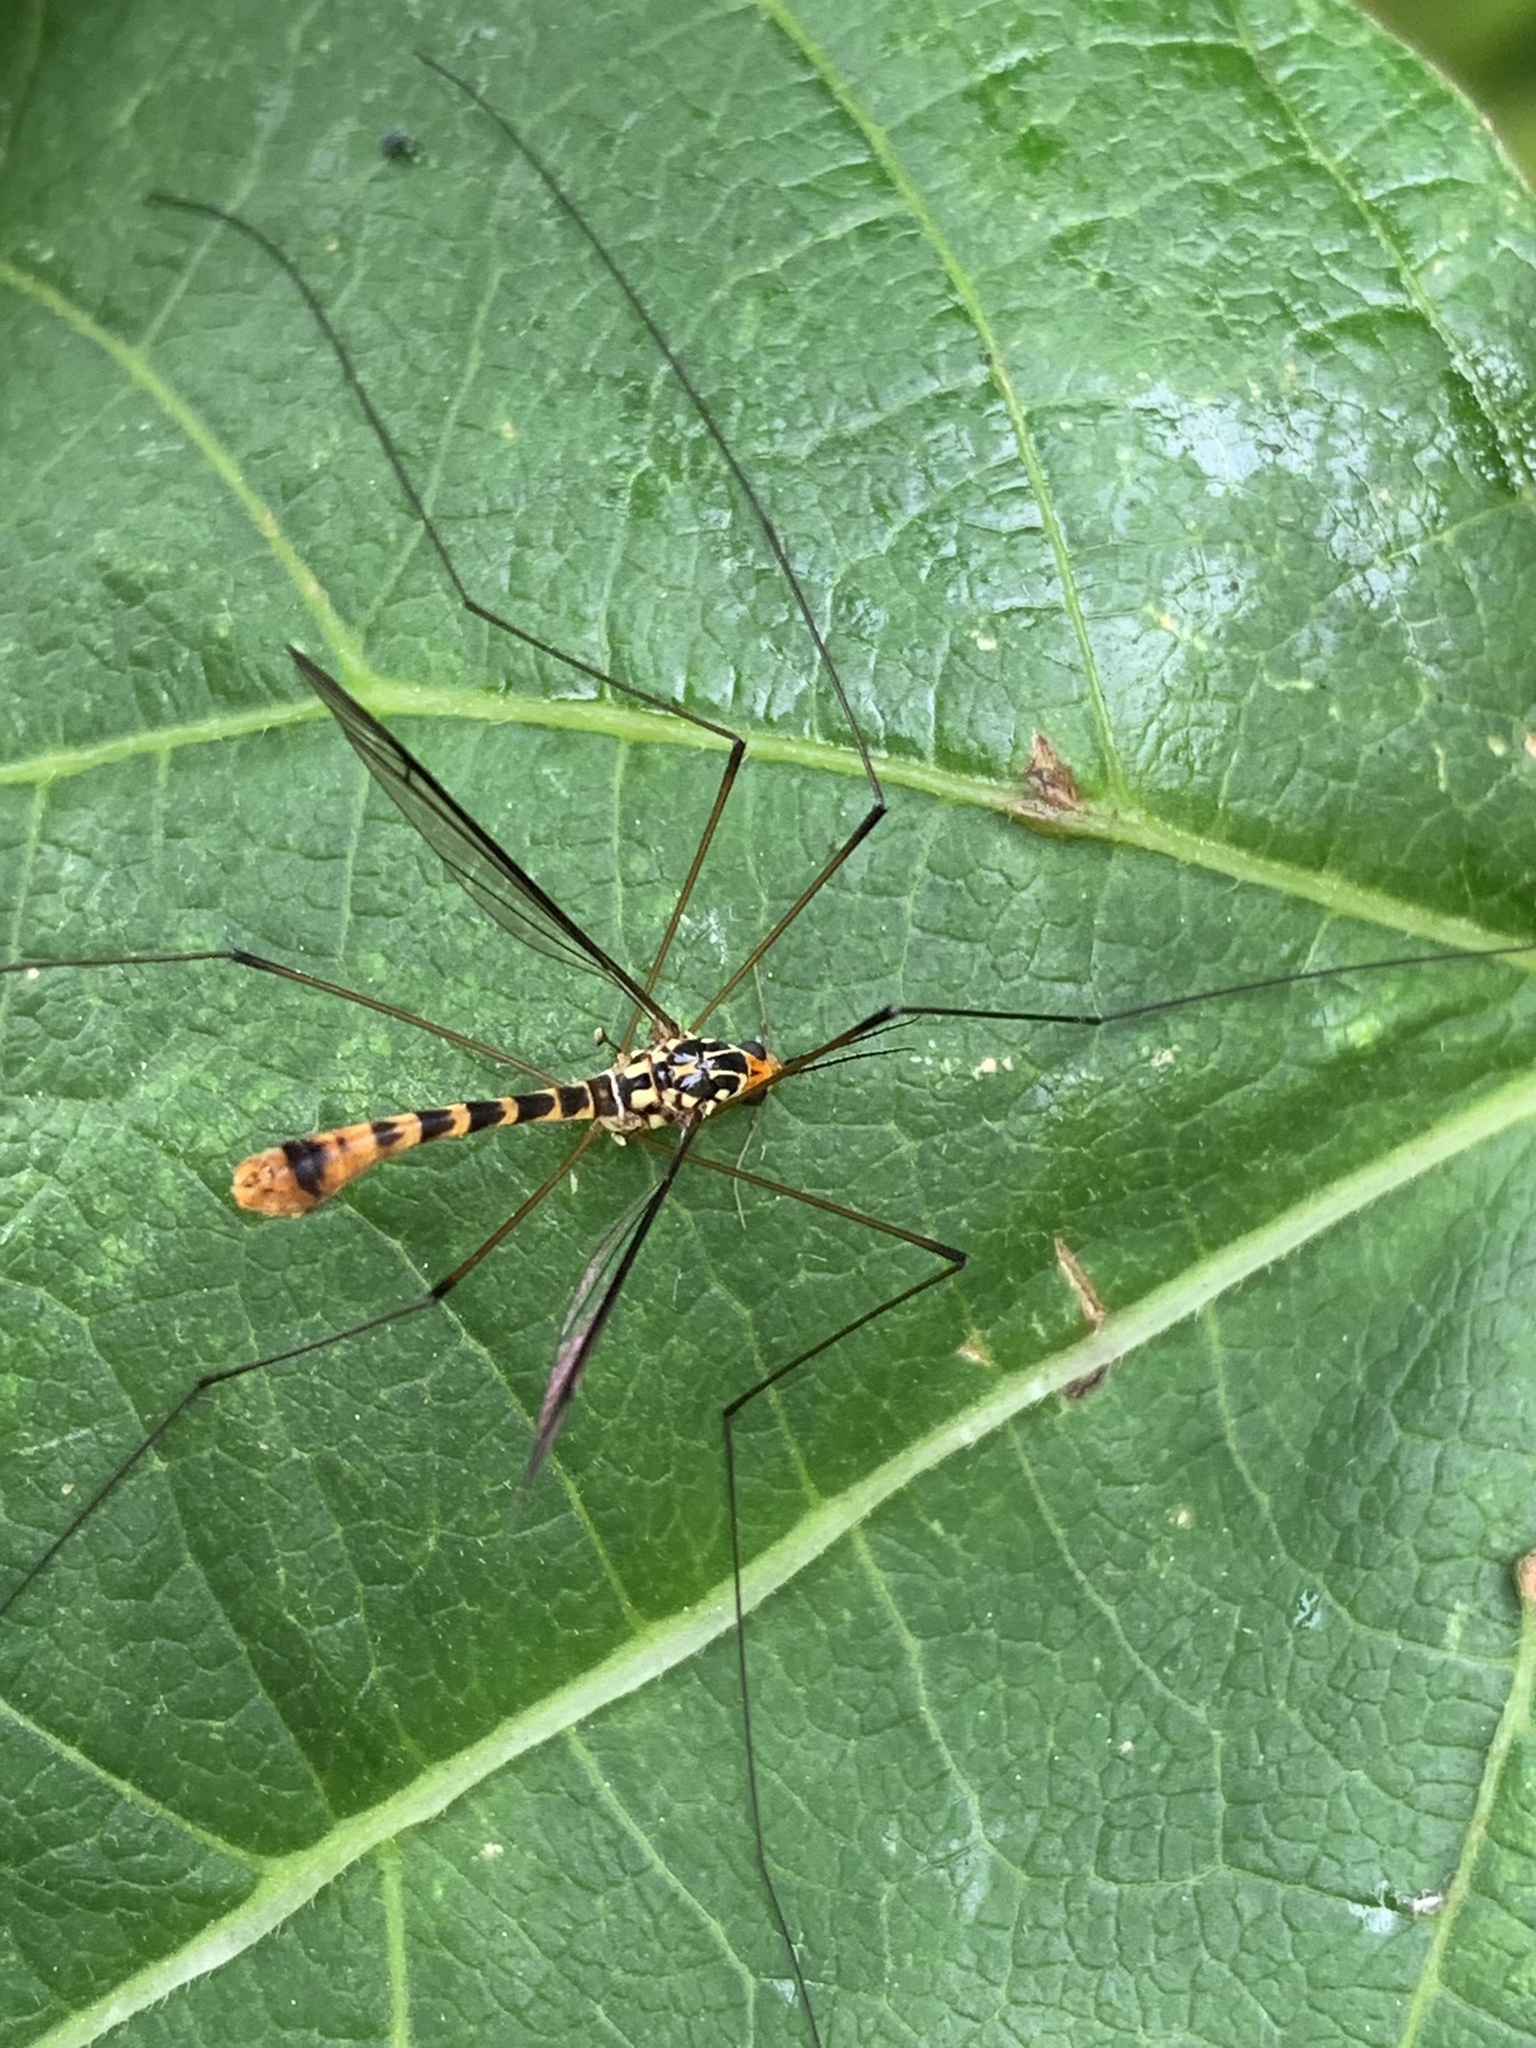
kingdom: Animalia
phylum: Arthropoda
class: Insecta
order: Diptera
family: Tipulidae
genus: Nephrotoma
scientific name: Nephrotoma flavipalpis
